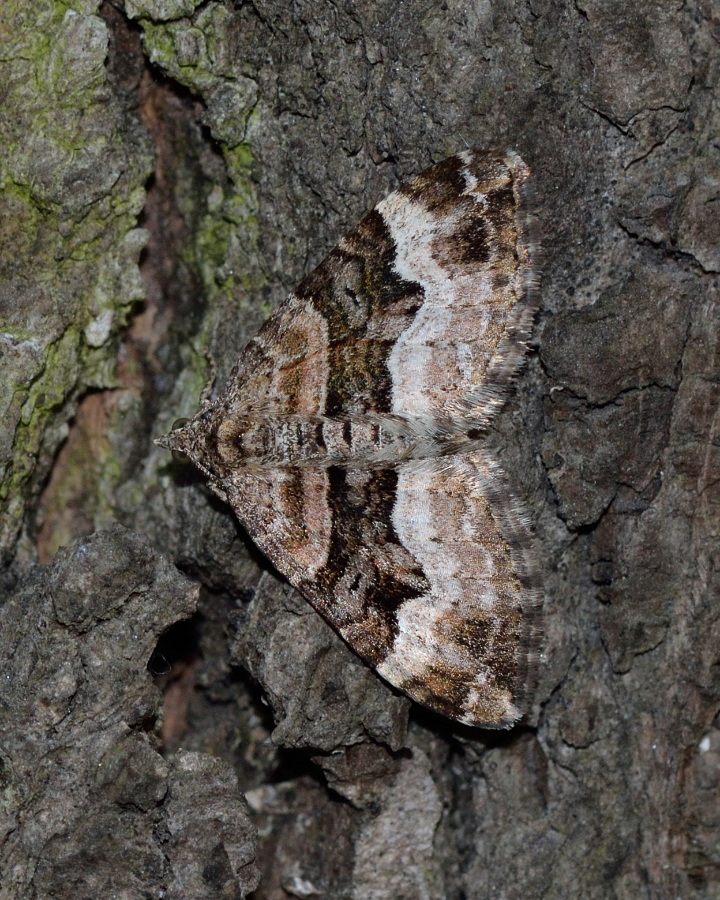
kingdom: Animalia
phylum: Arthropoda
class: Insecta
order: Lepidoptera
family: Geometridae
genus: Xanthorhoe
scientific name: Xanthorhoe biriviata
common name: Balsam carpet
